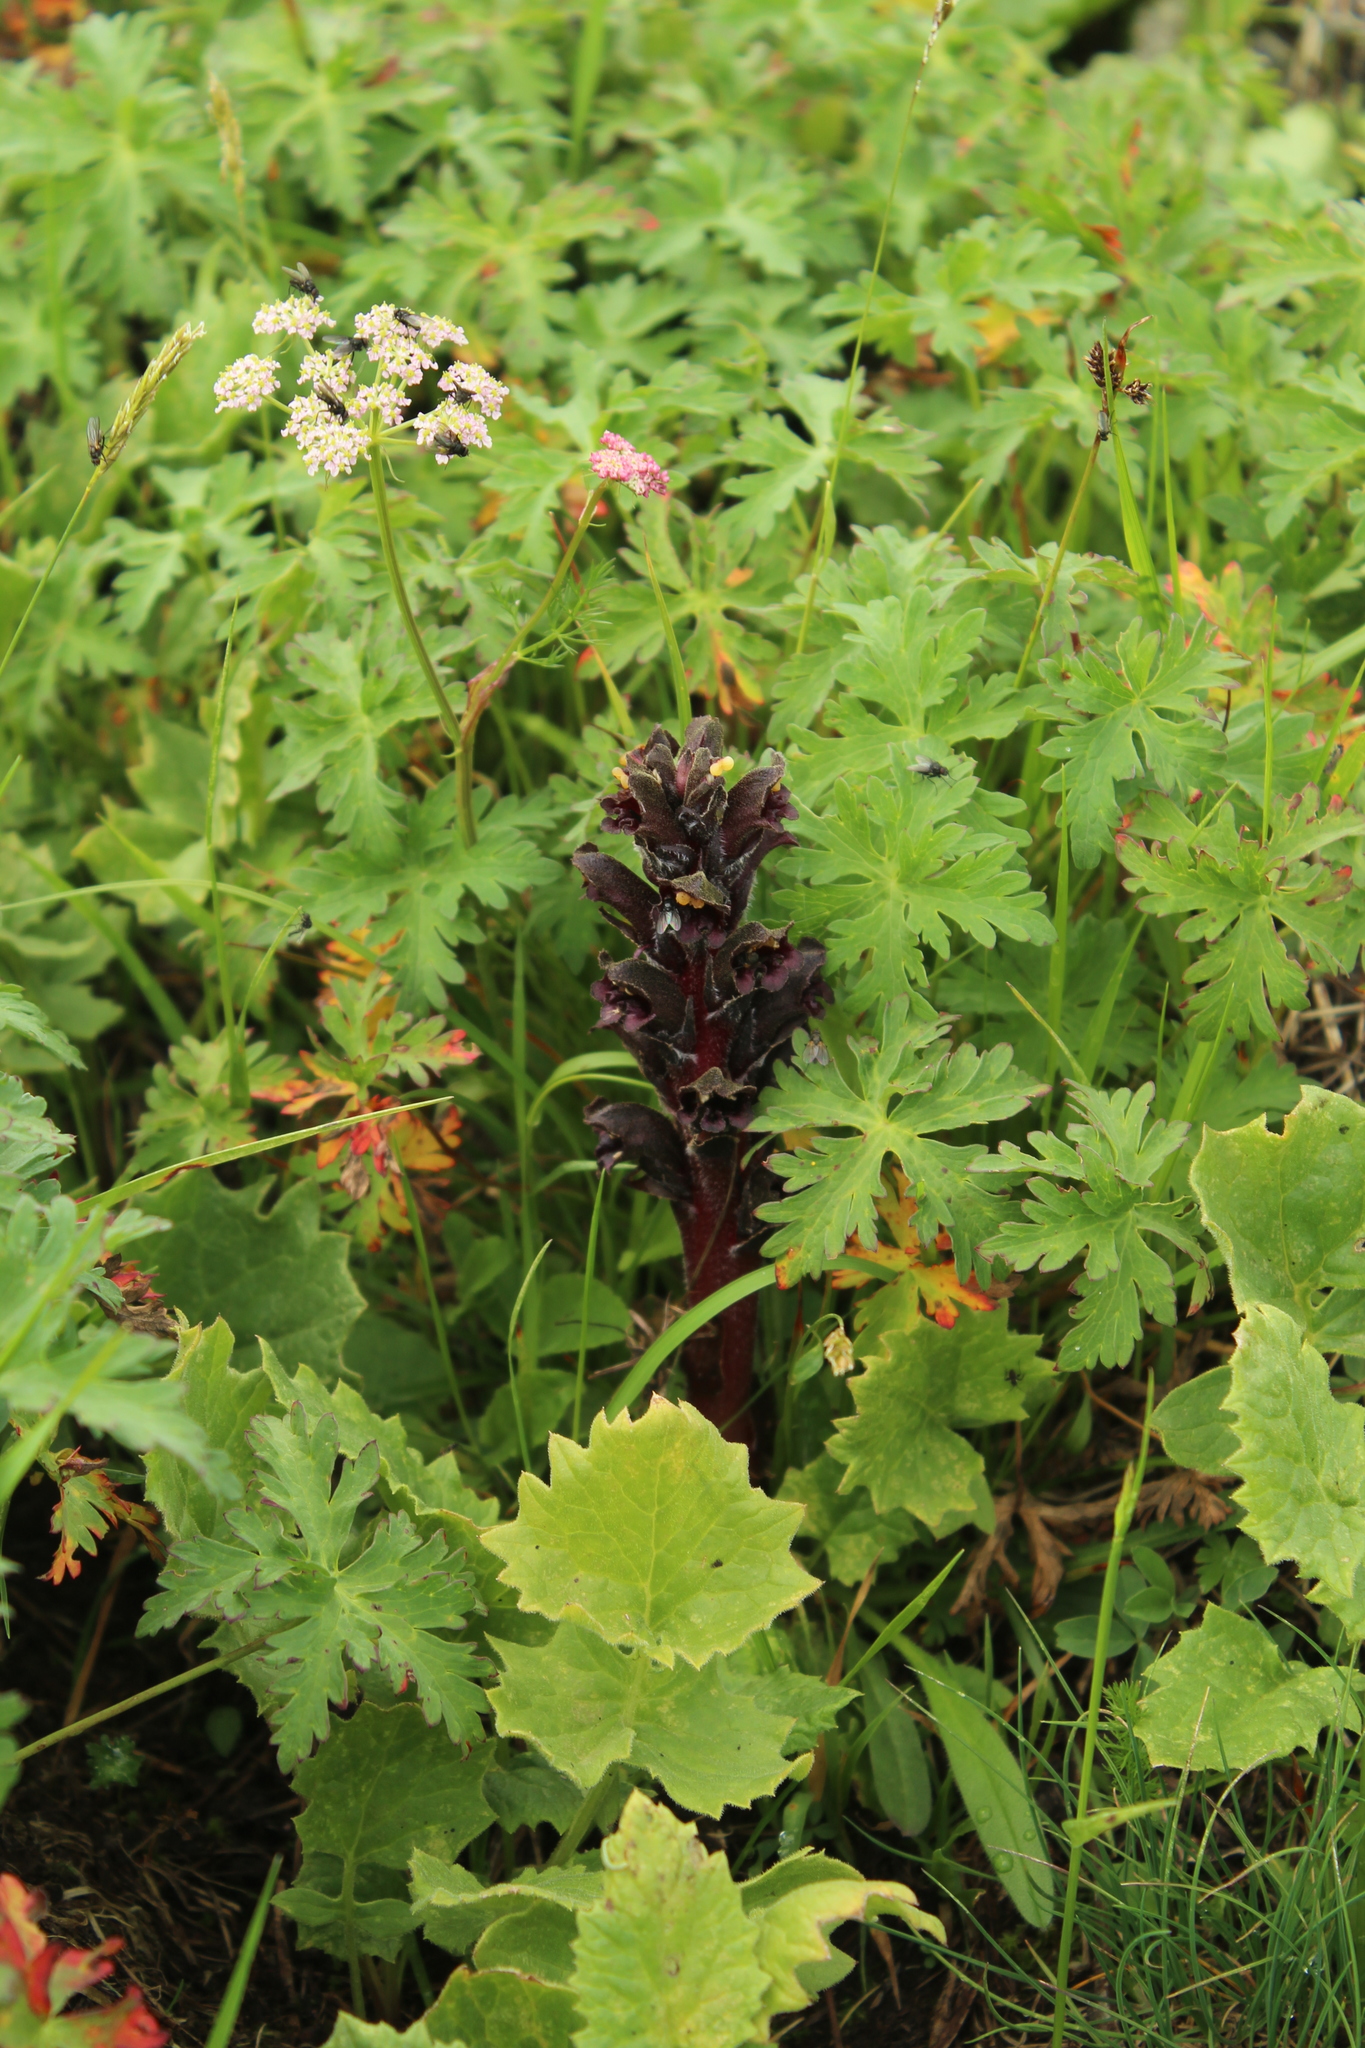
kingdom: Plantae
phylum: Tracheophyta
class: Magnoliopsida
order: Lamiales
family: Orobanchaceae
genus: Orobanche
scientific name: Orobanche gamosepala
